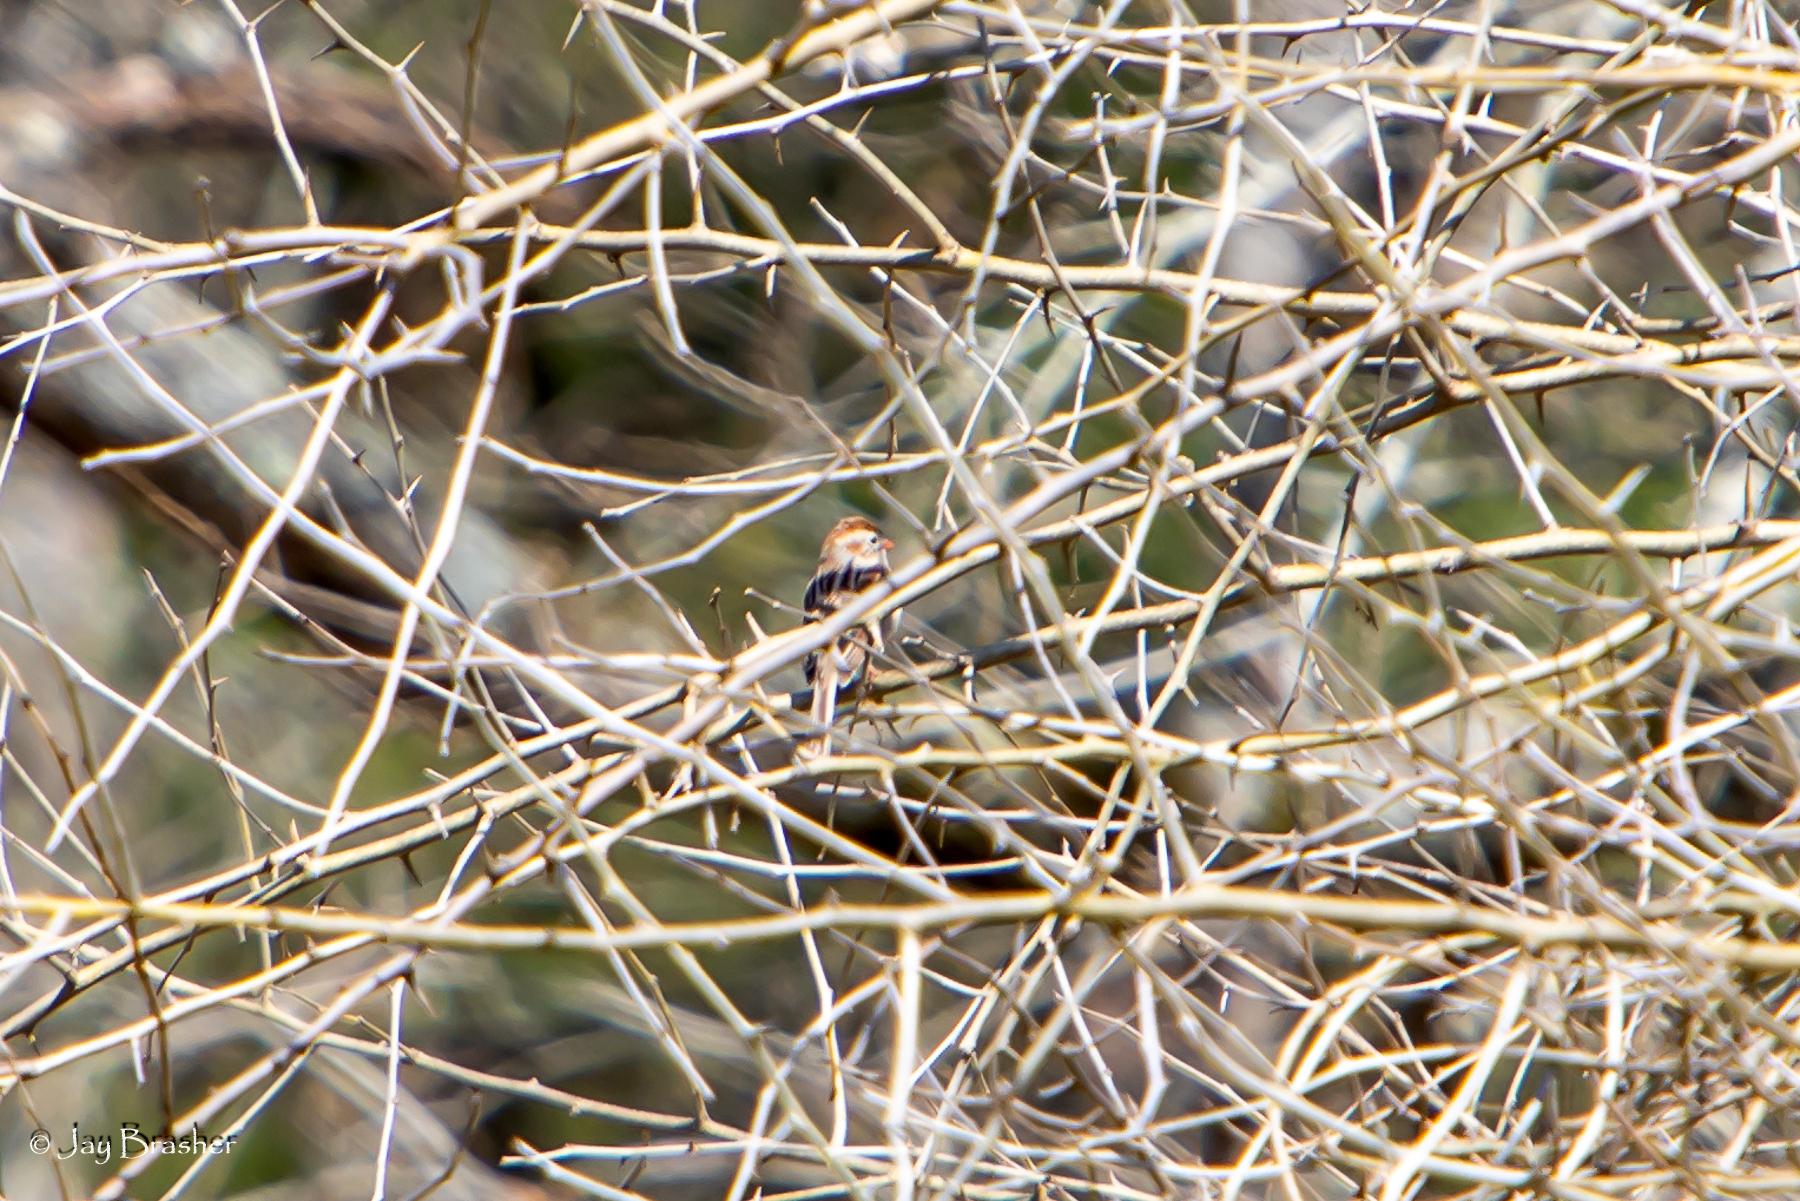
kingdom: Animalia
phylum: Chordata
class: Aves
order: Passeriformes
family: Passerellidae
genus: Spizella
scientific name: Spizella pusilla
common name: Field sparrow
